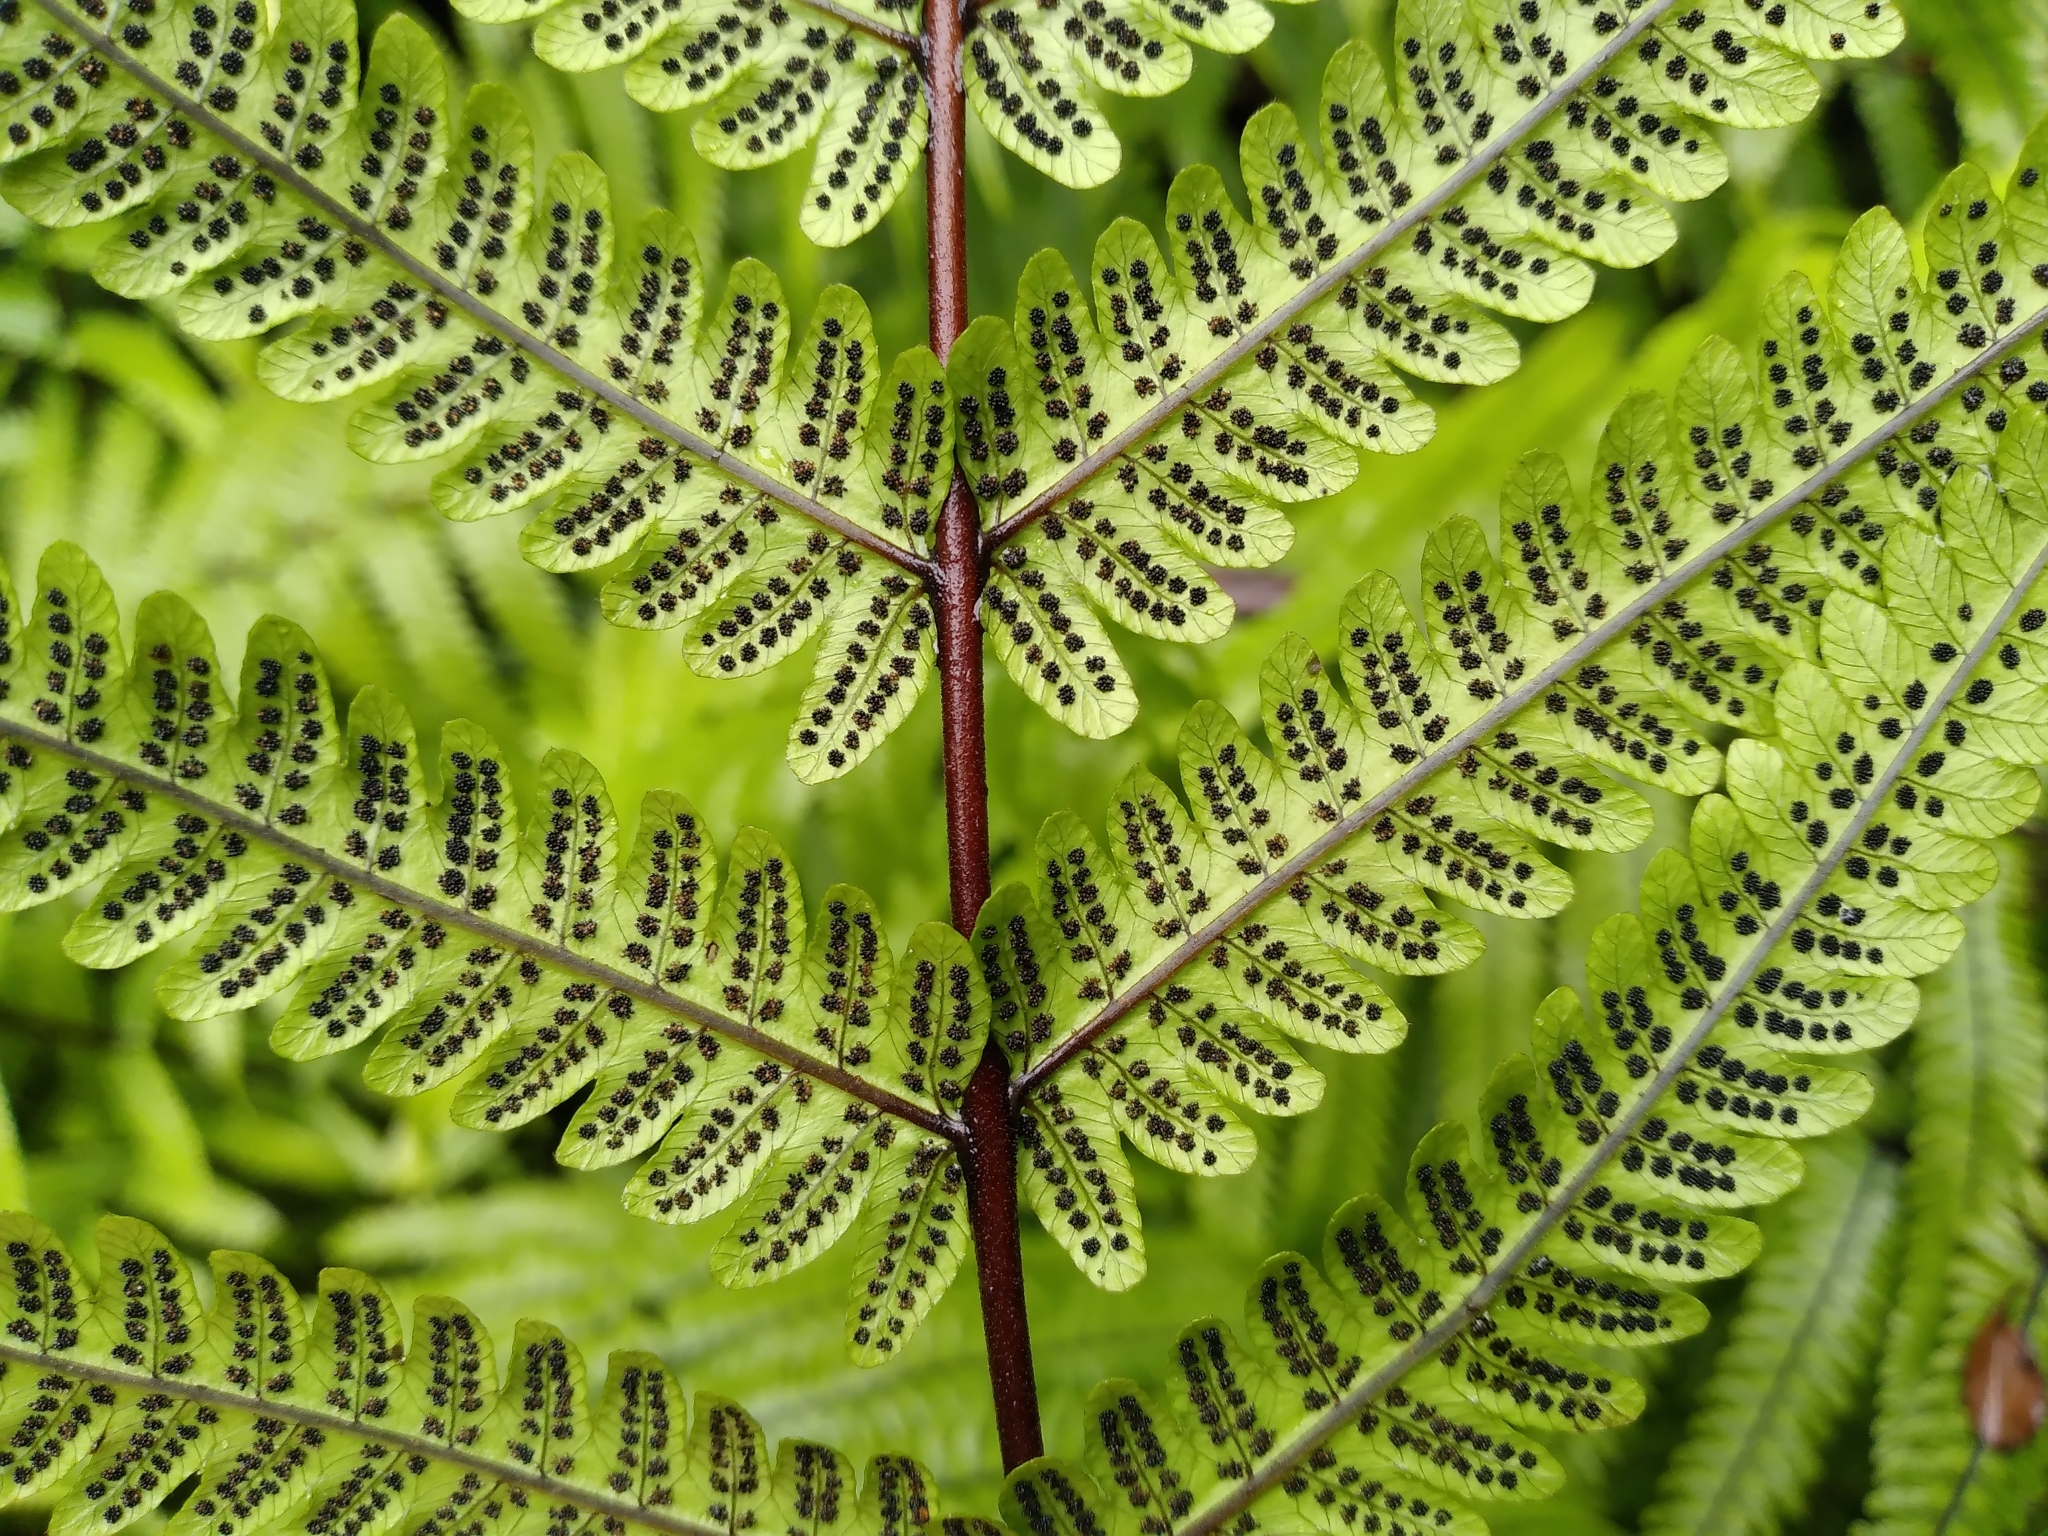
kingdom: Plantae
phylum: Tracheophyta
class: Polypodiopsida
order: Polypodiales
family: Thelypteridaceae
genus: Pakau
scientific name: Pakau pennigera
